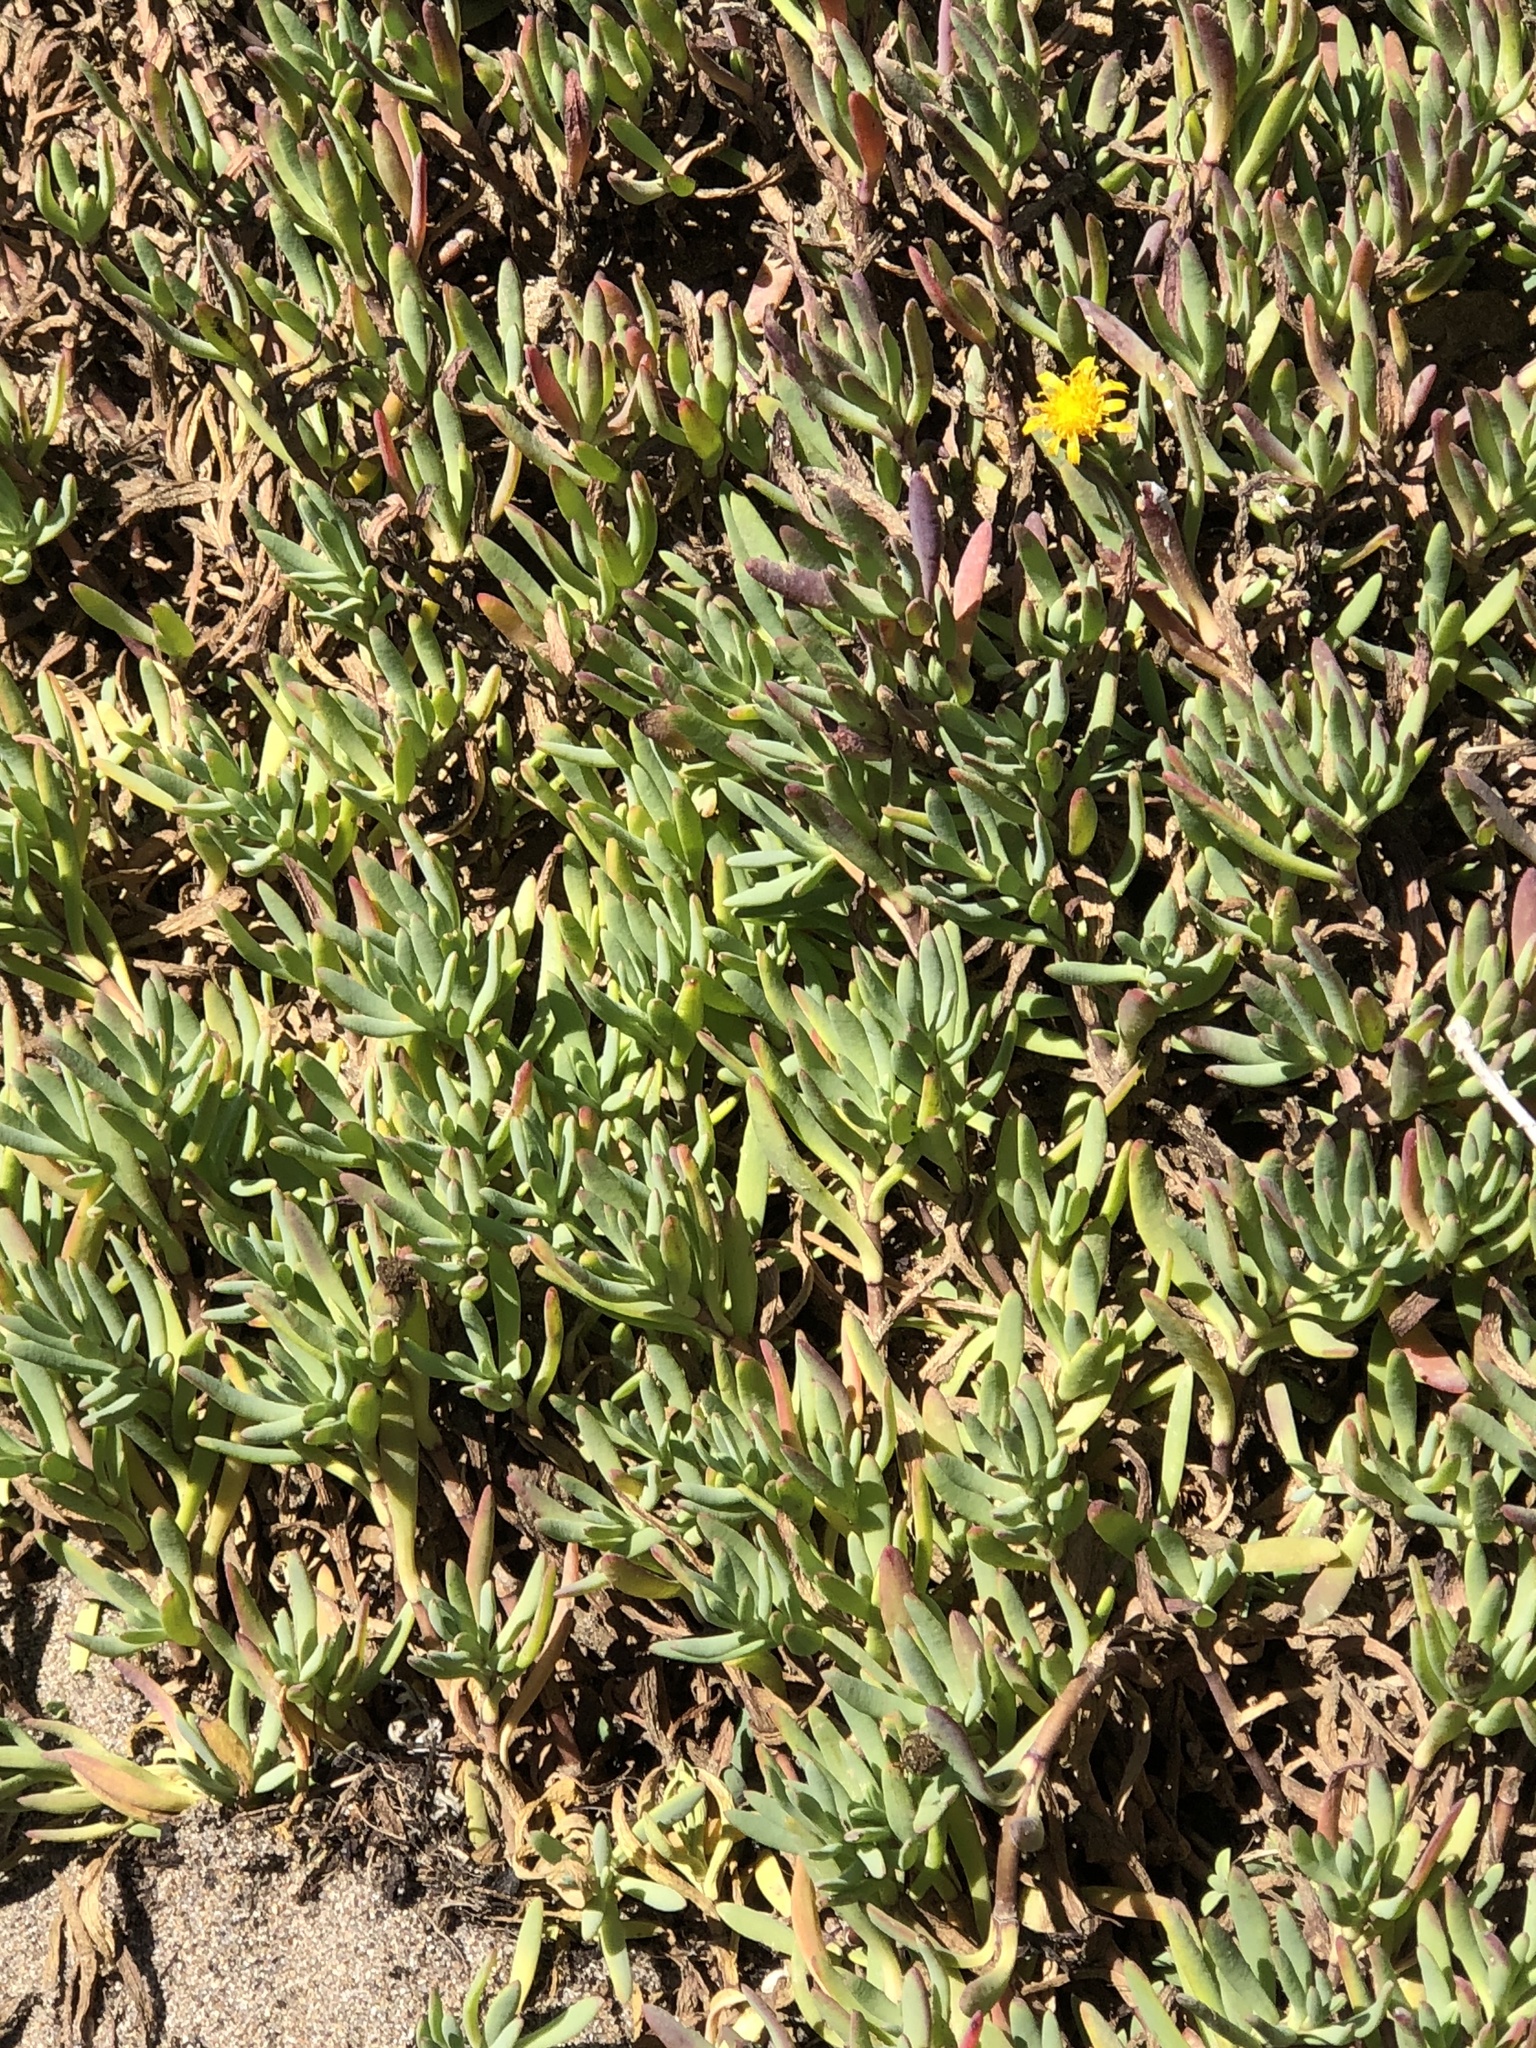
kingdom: Plantae
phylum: Tracheophyta
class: Magnoliopsida
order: Asterales
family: Asteraceae
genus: Jaumea
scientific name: Jaumea carnosa
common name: Fleshy jaumea
